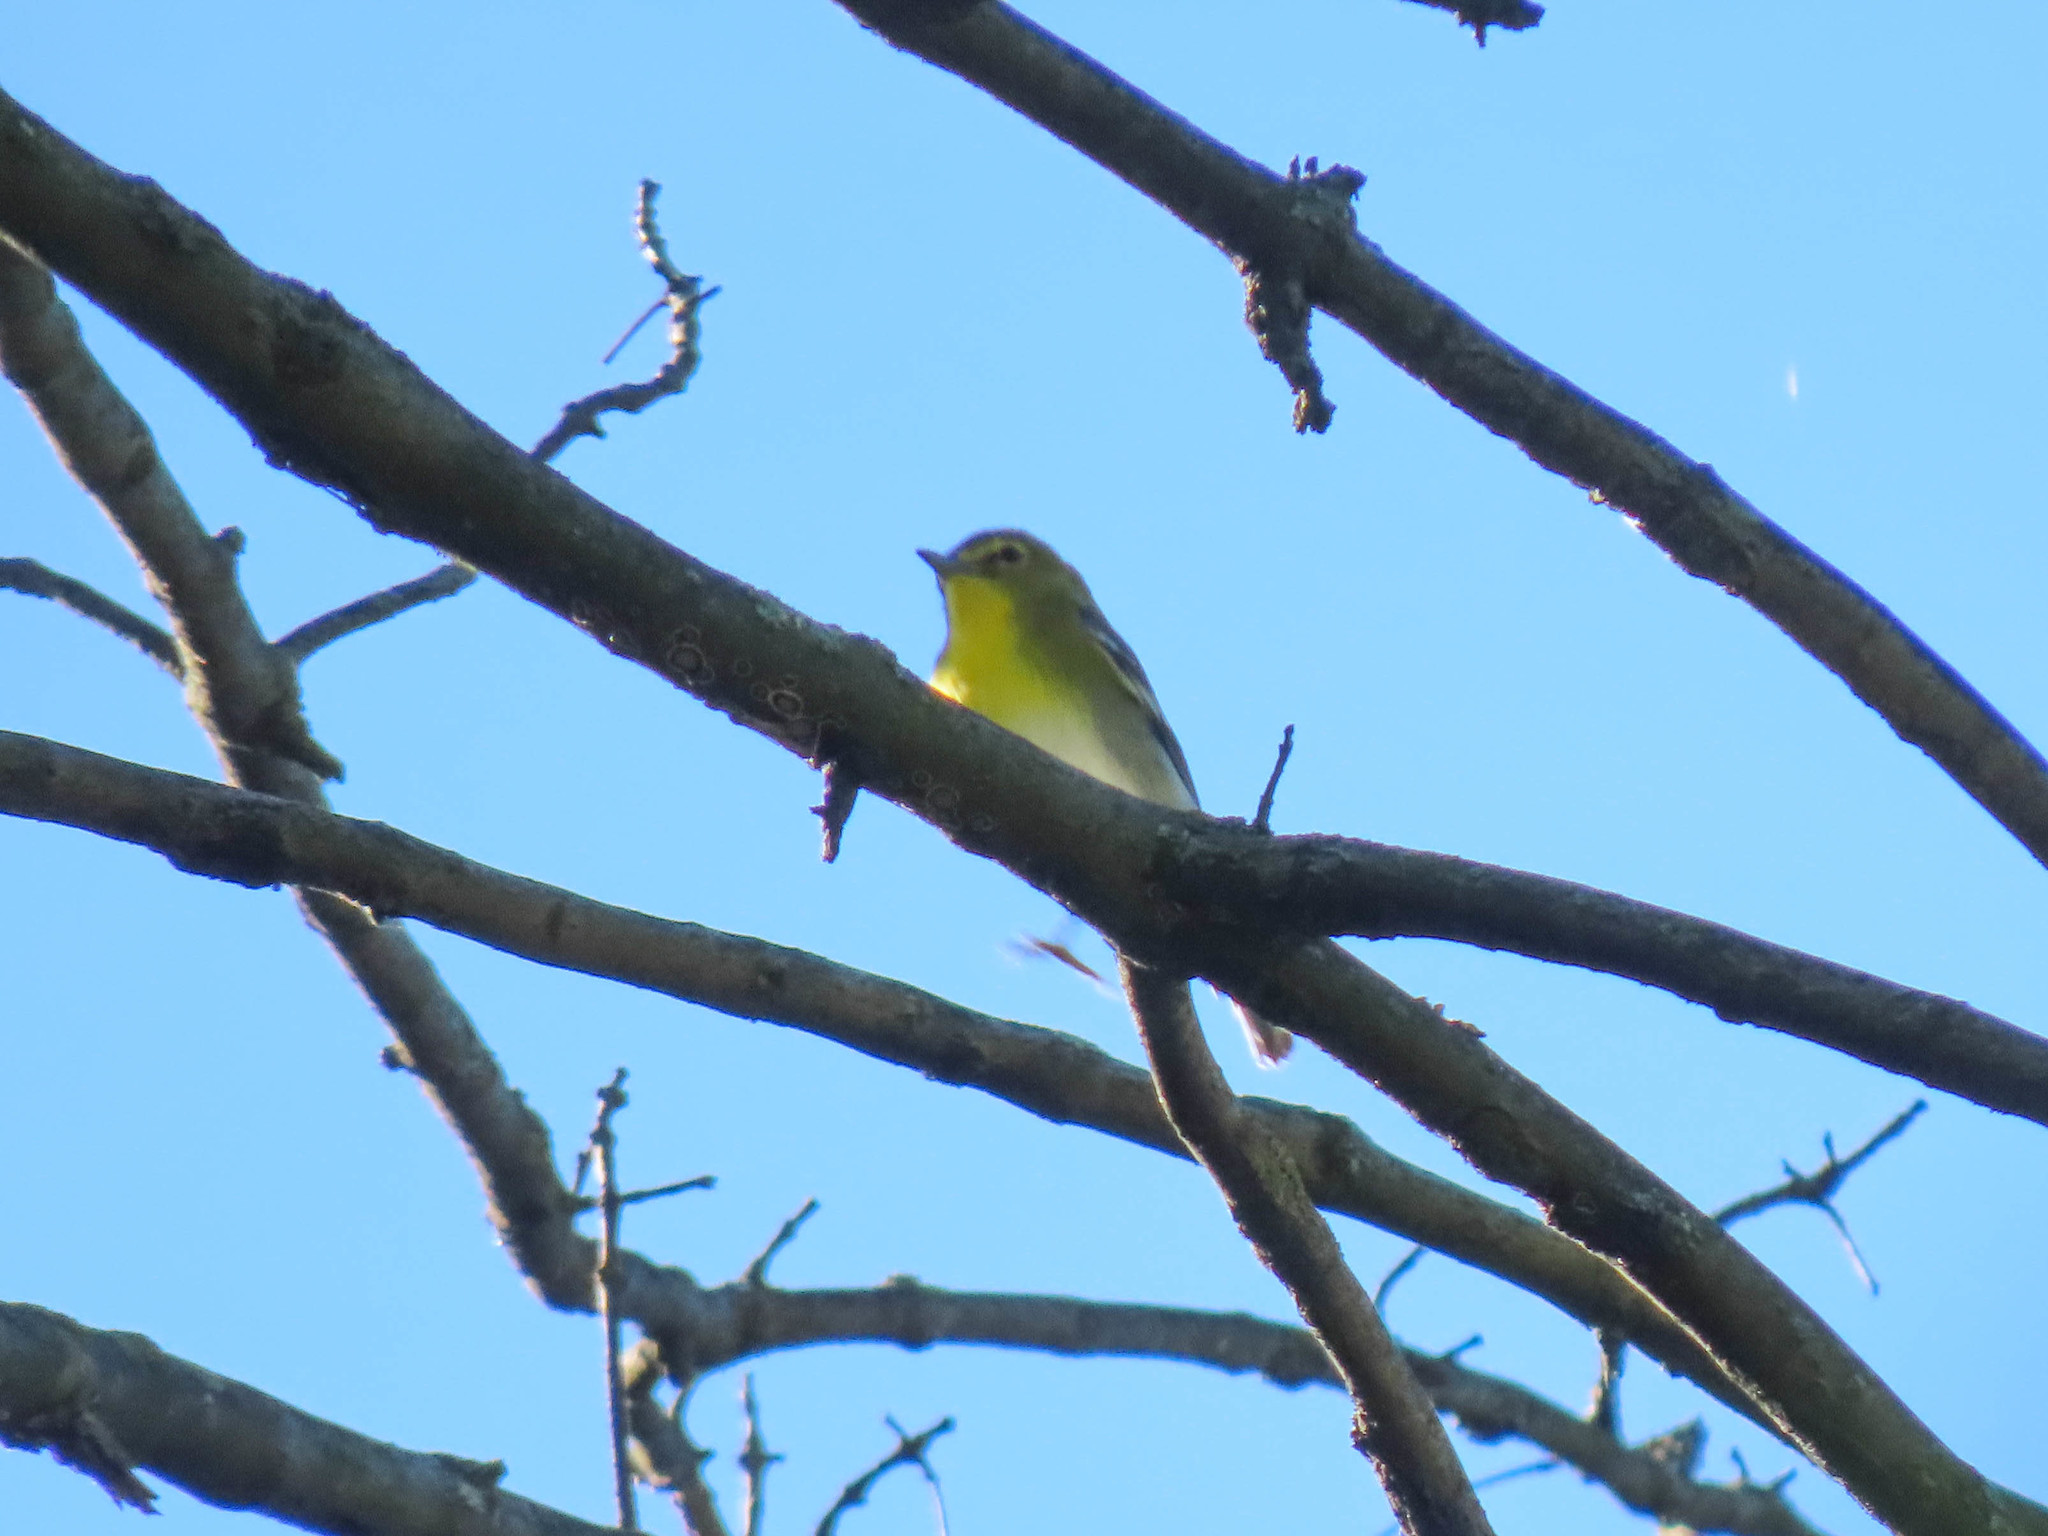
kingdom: Animalia
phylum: Chordata
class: Aves
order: Passeriformes
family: Vireonidae
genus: Vireo
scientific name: Vireo flavifrons
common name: Yellow-throated vireo
